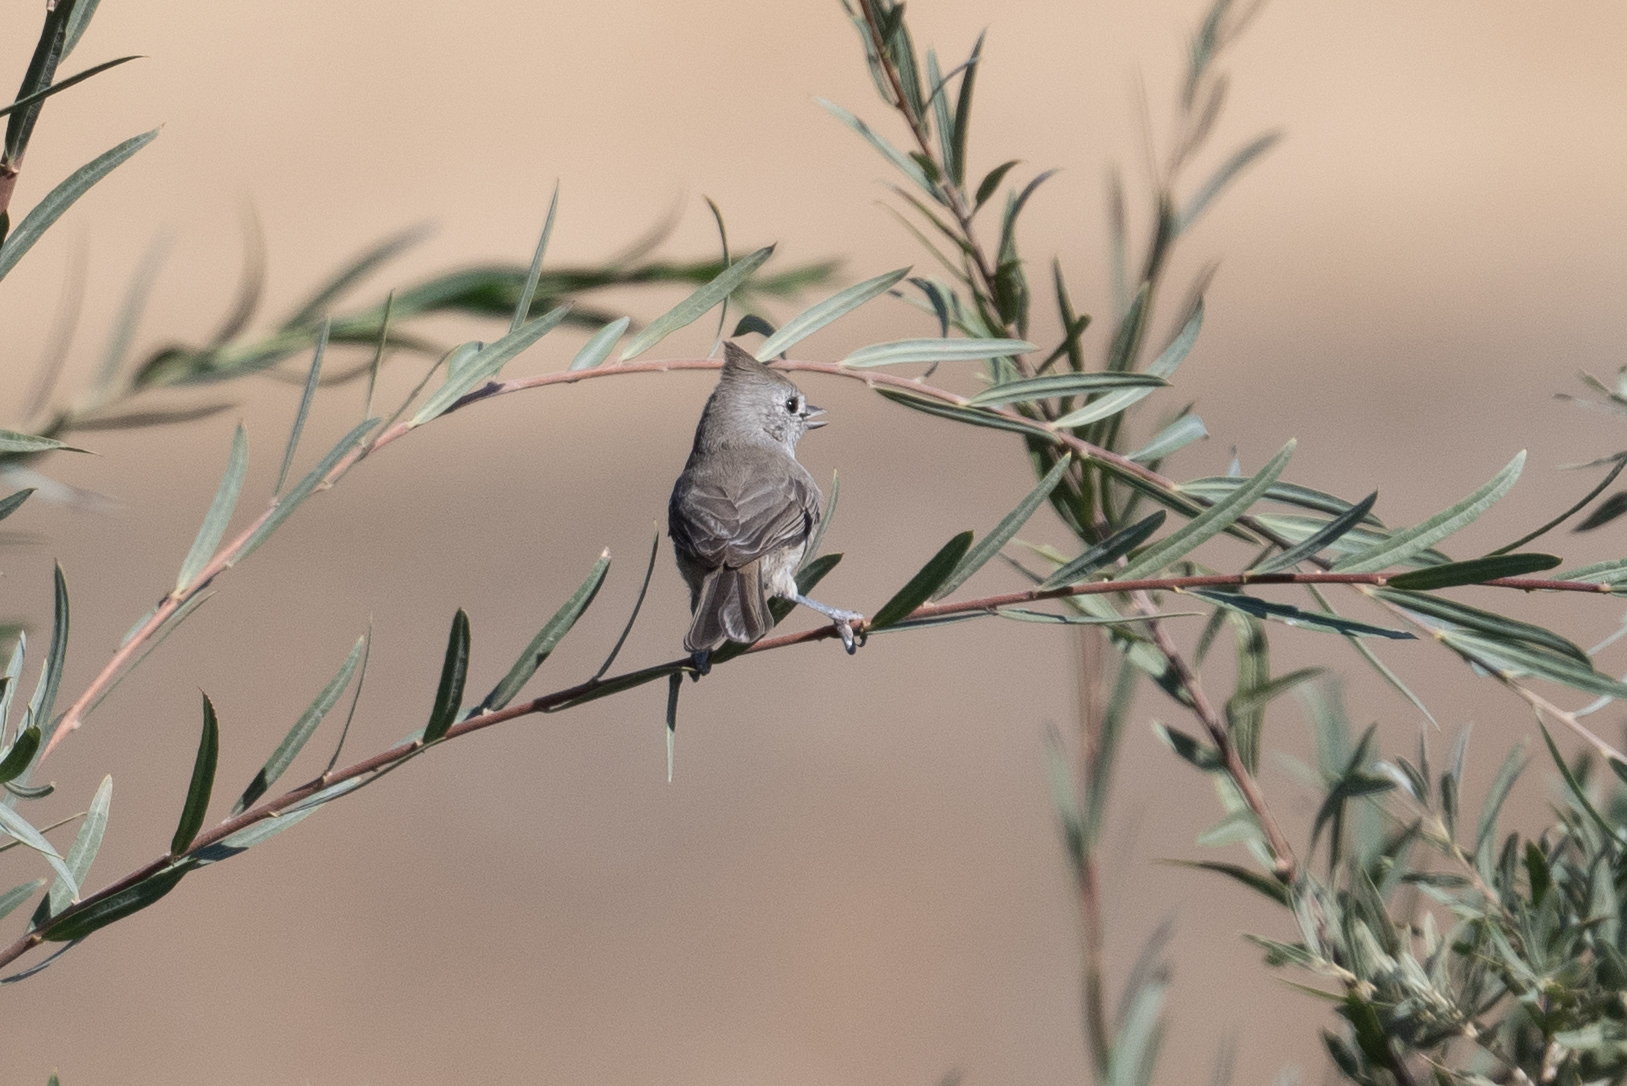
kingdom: Animalia
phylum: Chordata
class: Aves
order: Passeriformes
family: Paridae
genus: Baeolophus
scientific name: Baeolophus inornatus
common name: Oak titmouse
